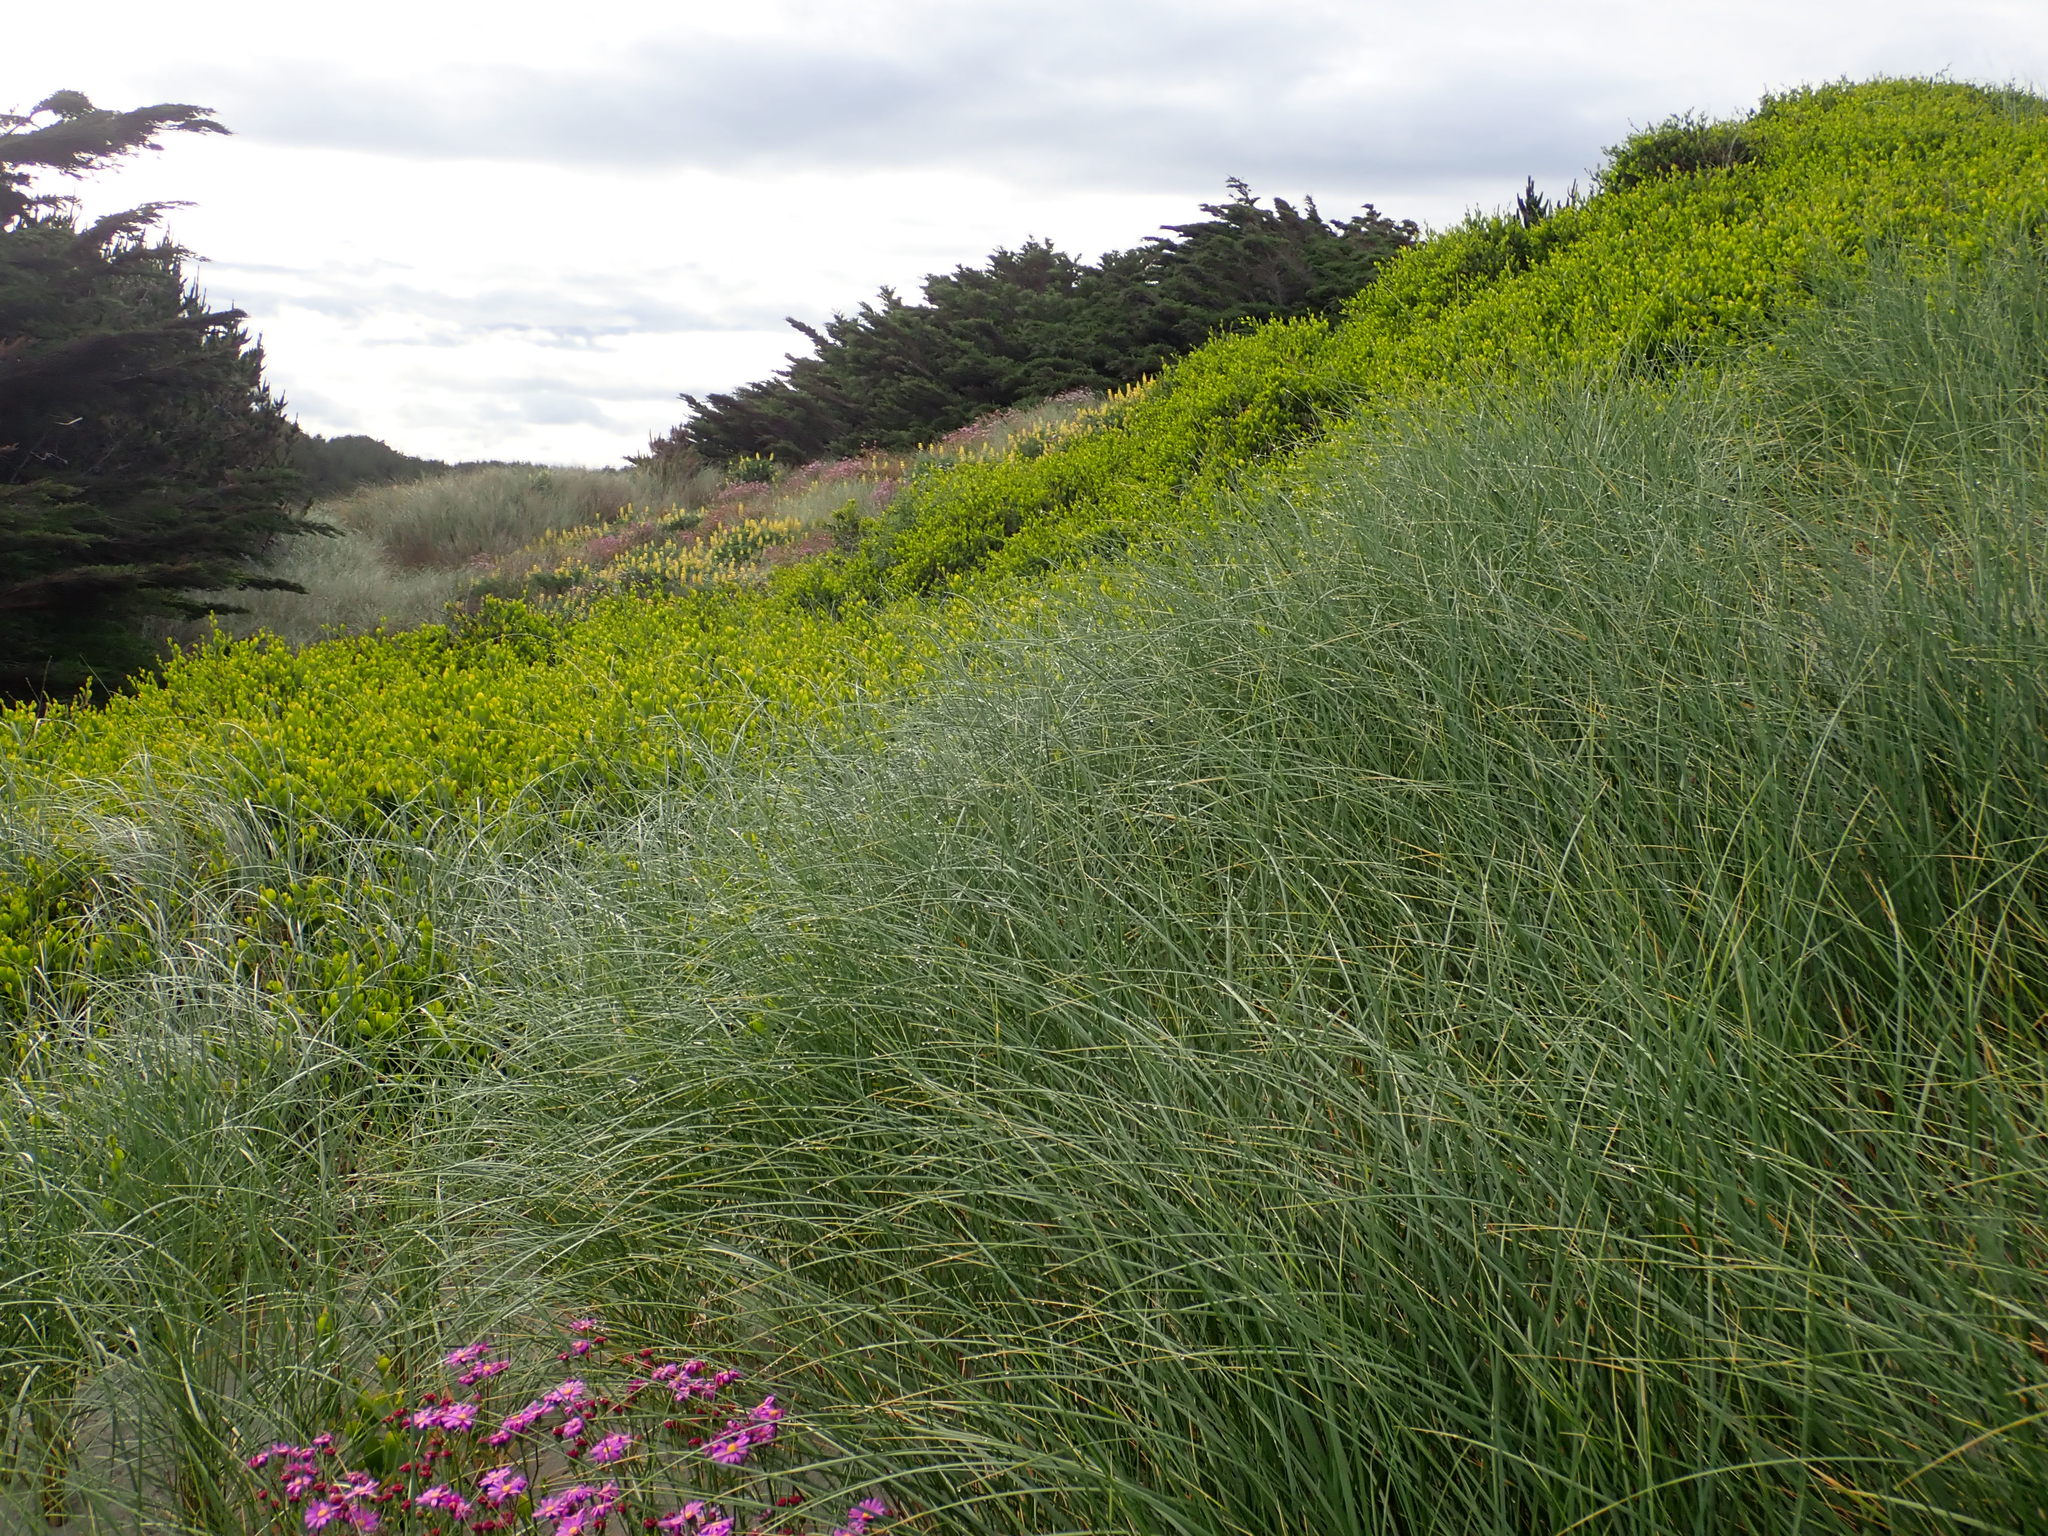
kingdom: Plantae
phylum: Tracheophyta
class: Magnoliopsida
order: Fabales
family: Fabaceae
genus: Acacia
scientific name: Acacia longifolia
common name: Sydney golden wattle
